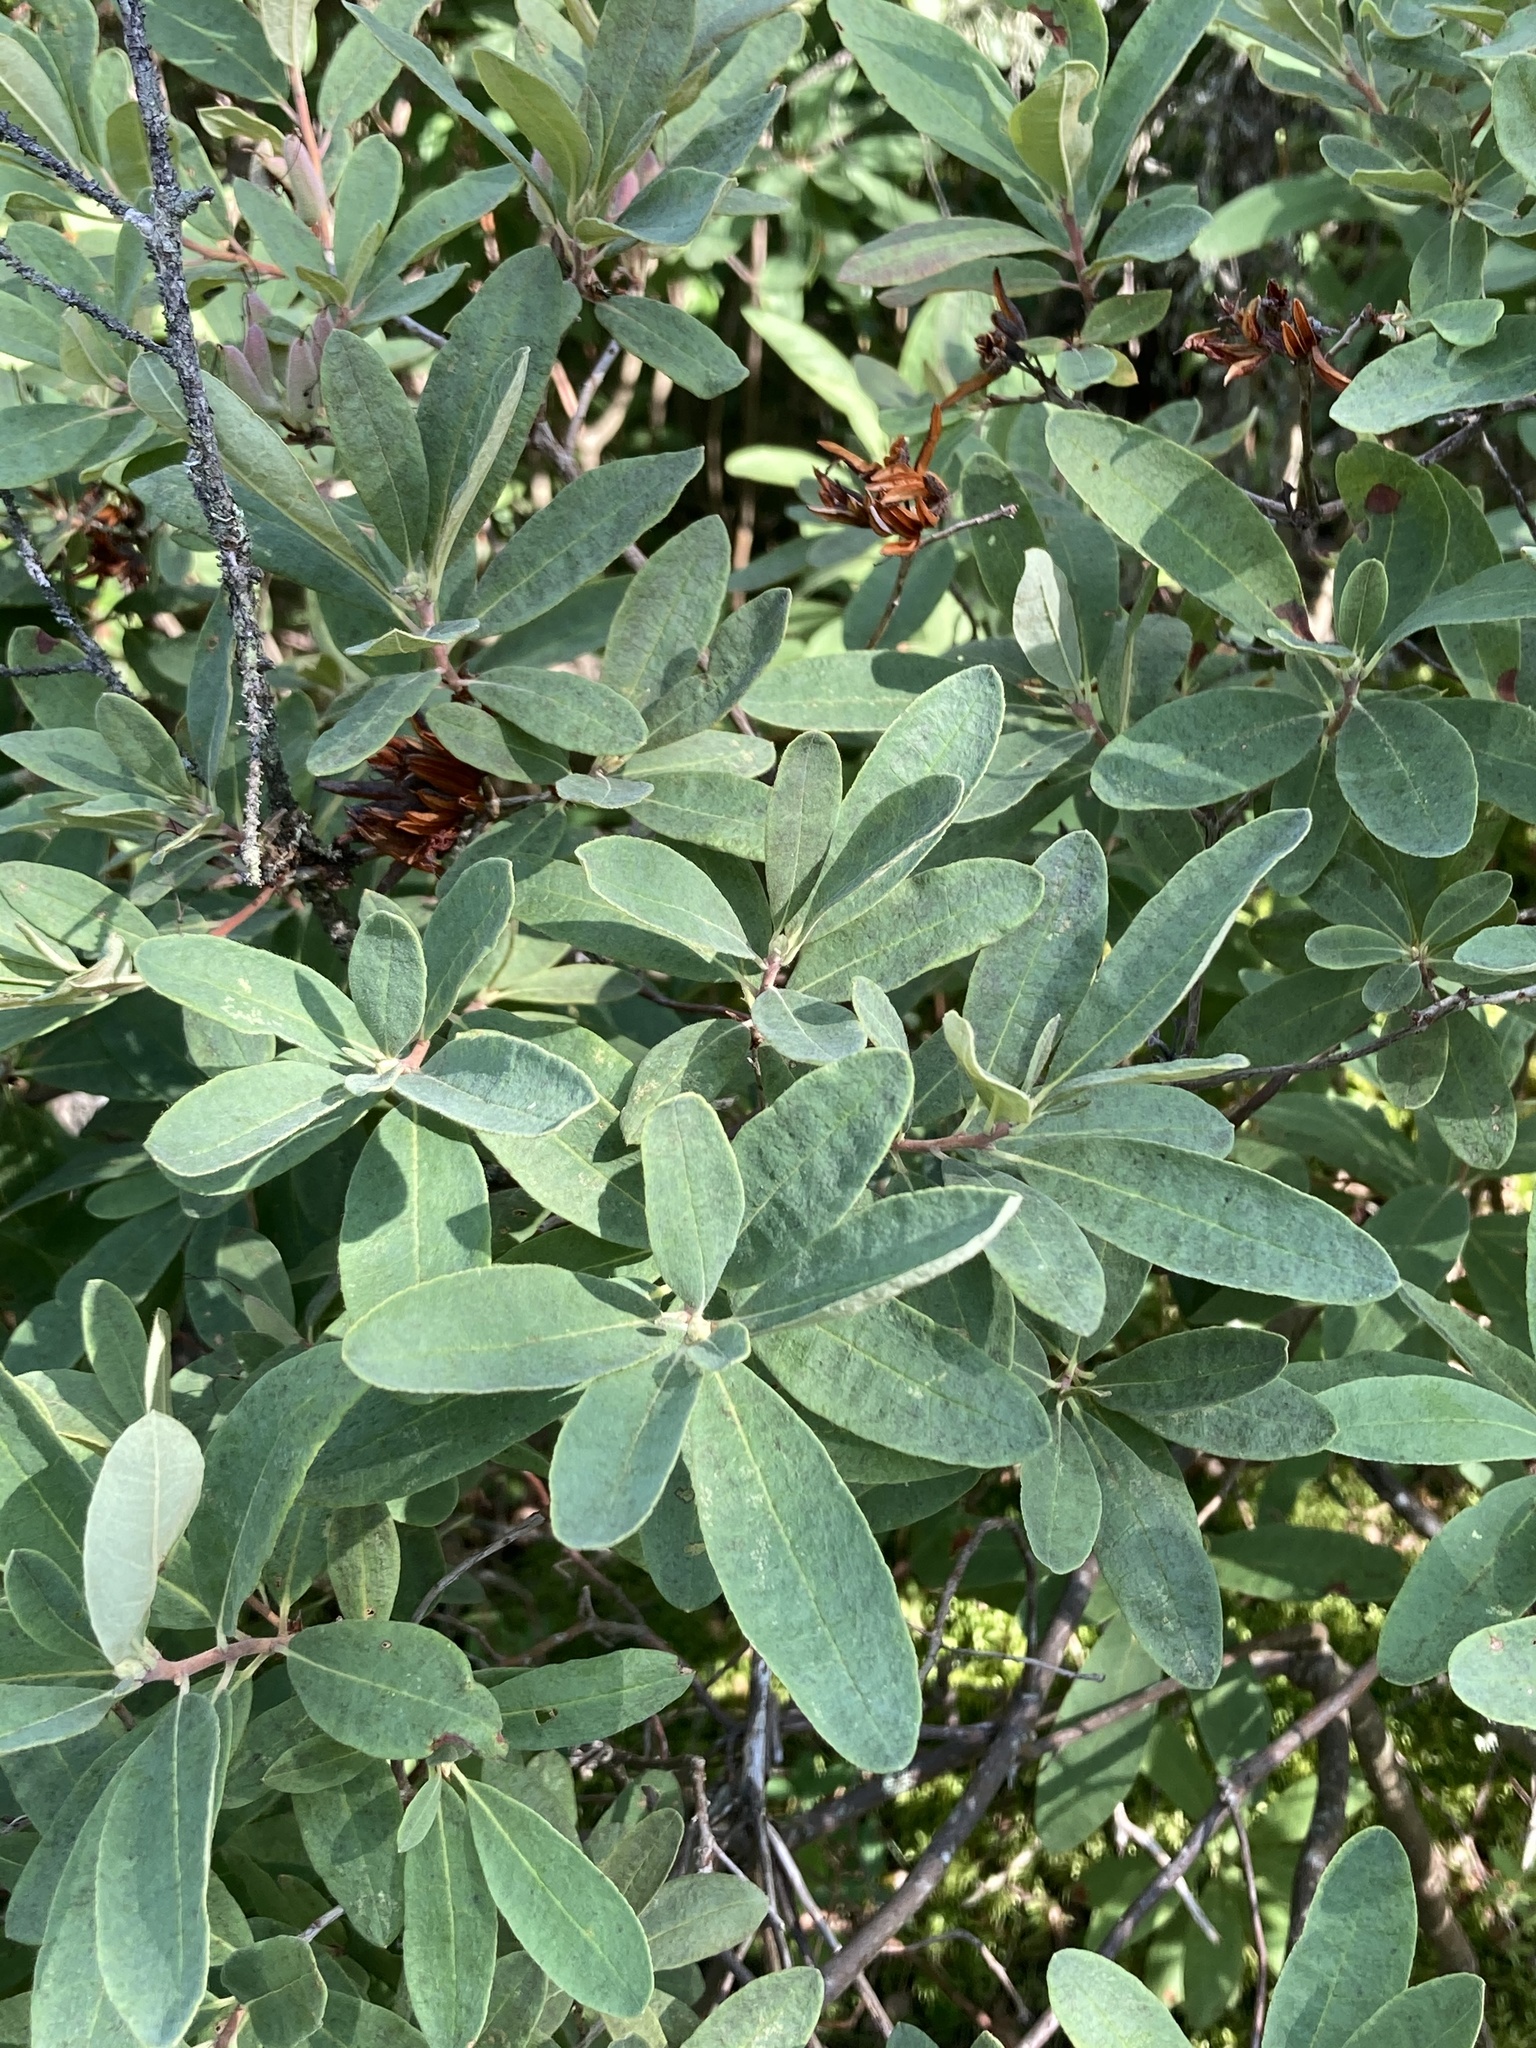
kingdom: Plantae
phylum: Tracheophyta
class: Magnoliopsida
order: Ericales
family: Ericaceae
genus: Rhododendron
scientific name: Rhododendron canadense
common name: Rhodora
